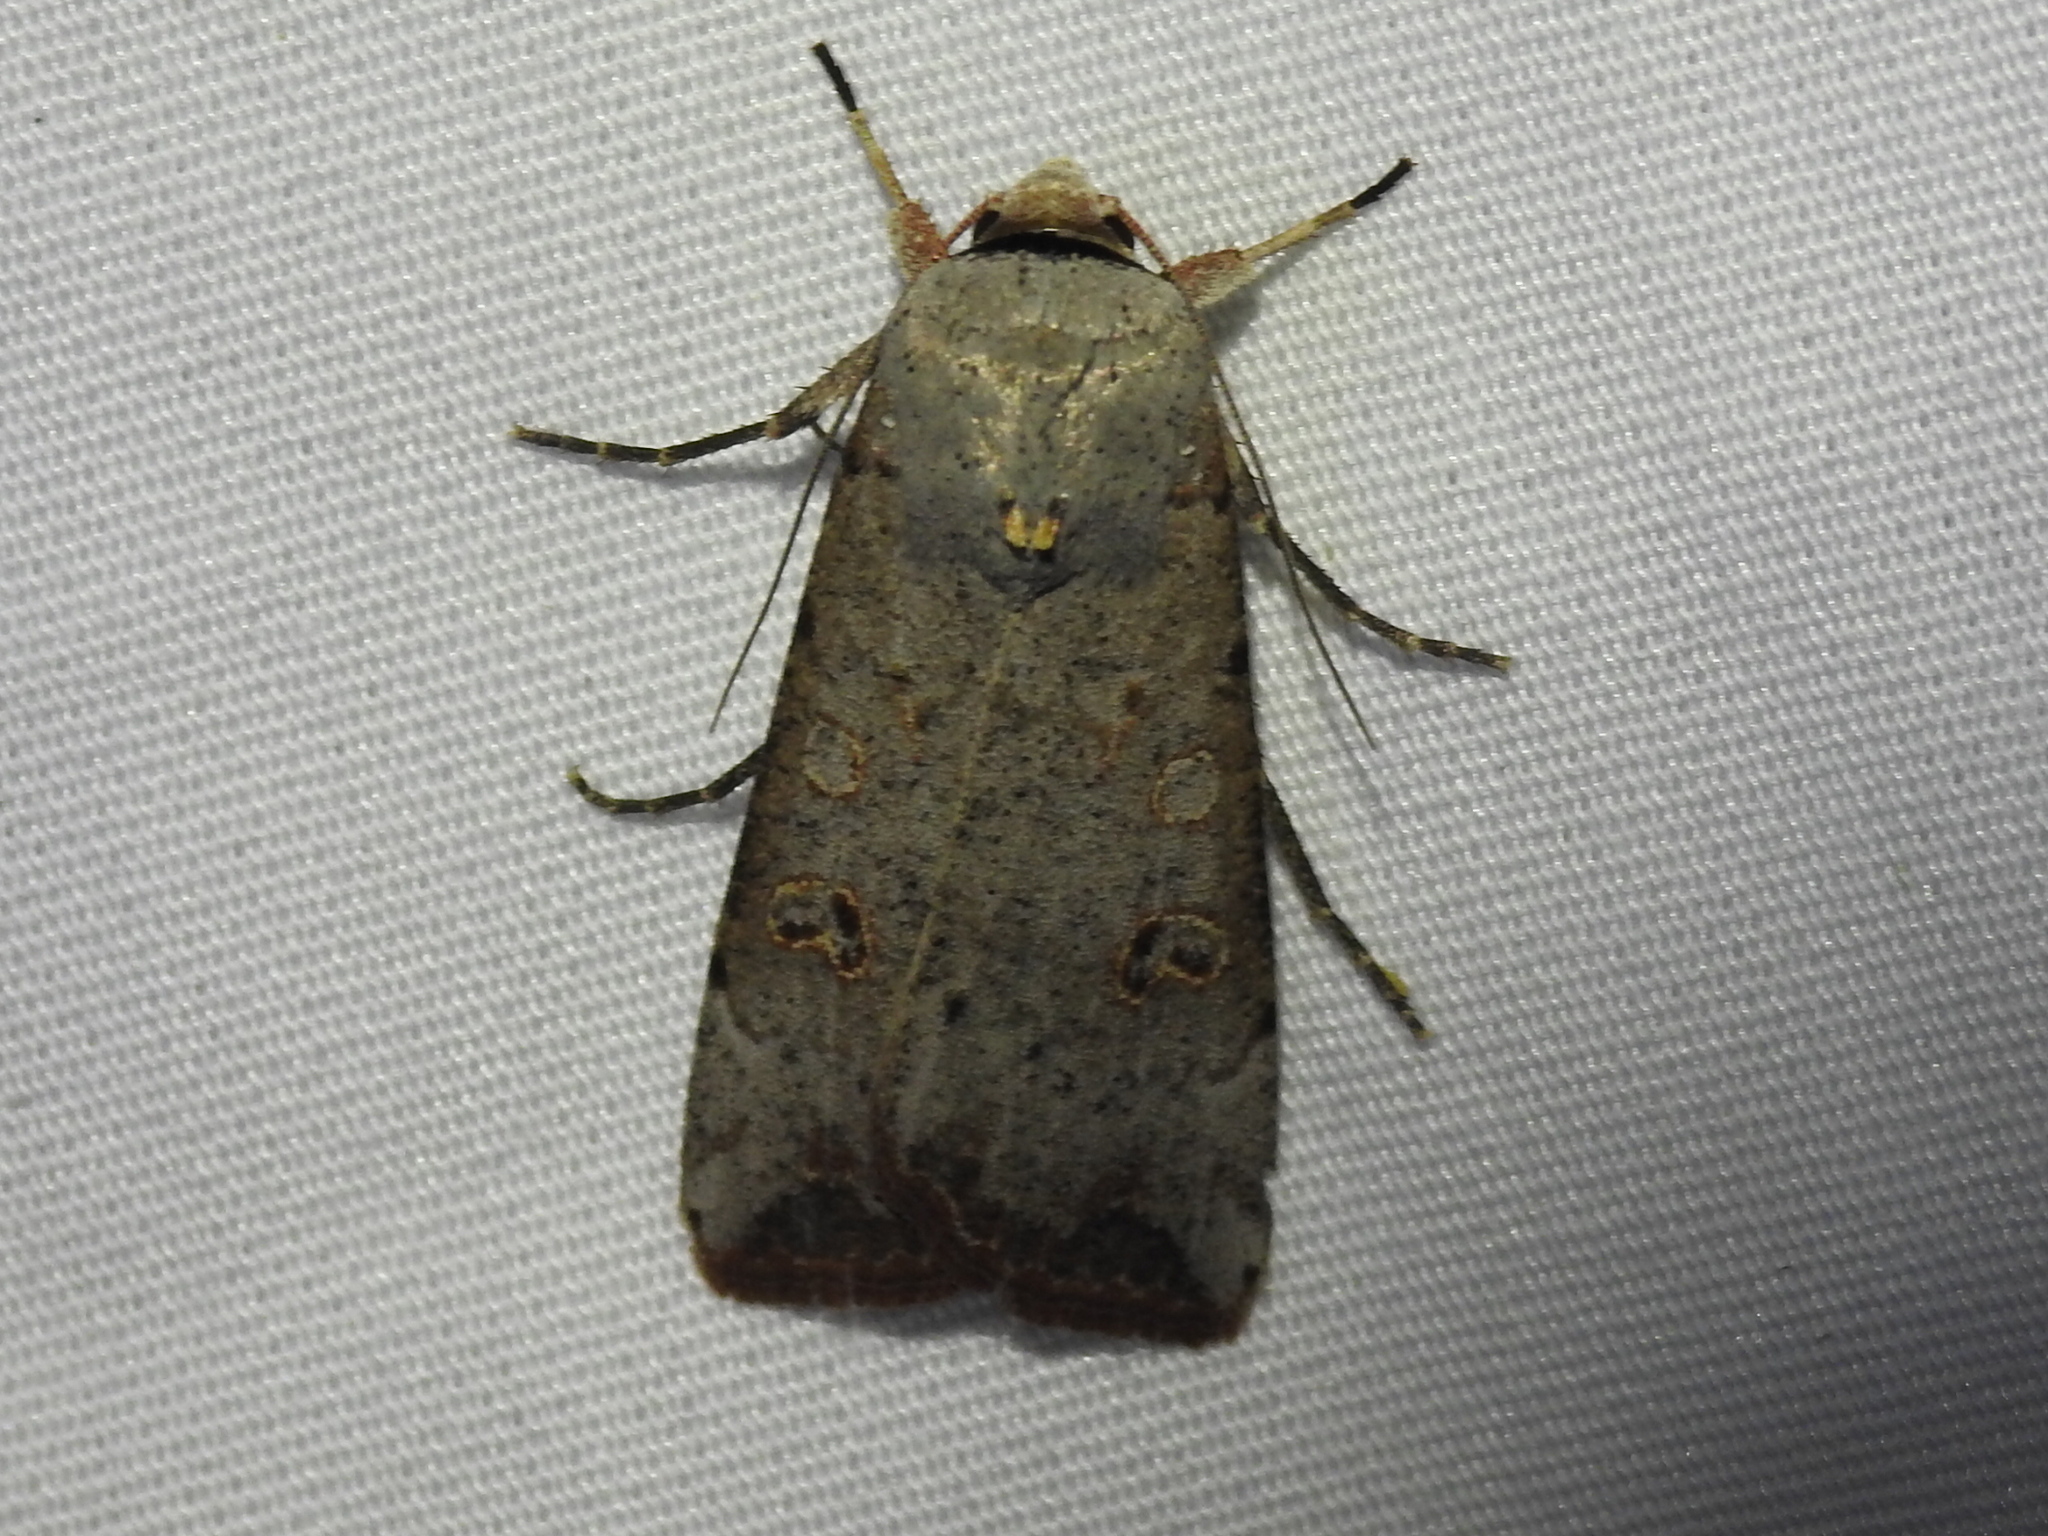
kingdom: Animalia
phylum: Arthropoda
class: Insecta
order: Lepidoptera
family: Noctuidae
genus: Anicla
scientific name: Anicla infecta
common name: Green cutworm
